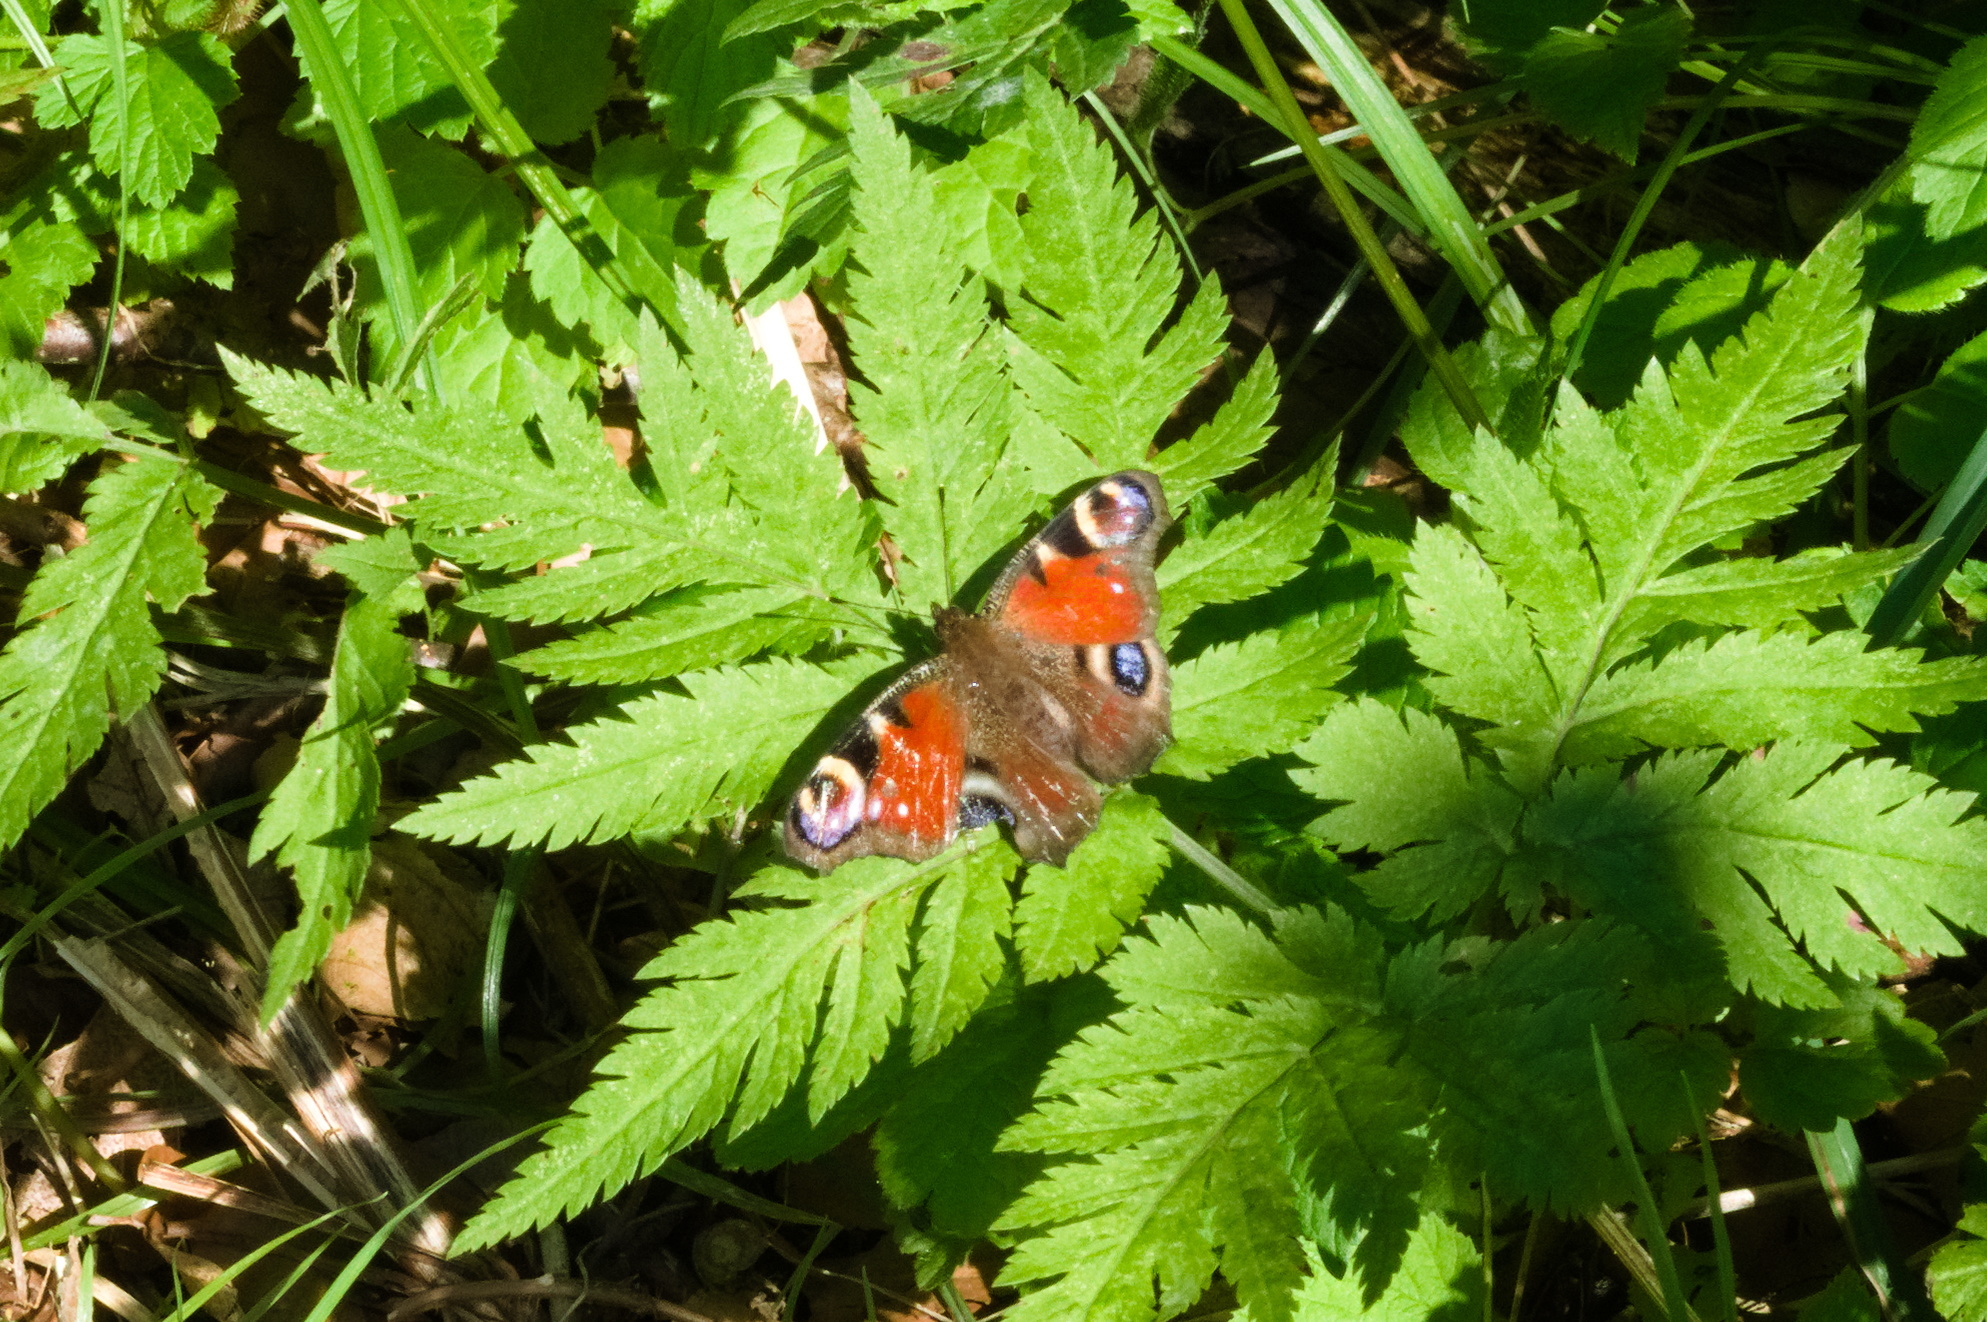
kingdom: Animalia
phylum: Arthropoda
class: Insecta
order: Lepidoptera
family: Nymphalidae
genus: Aglais
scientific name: Aglais io
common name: Peacock
